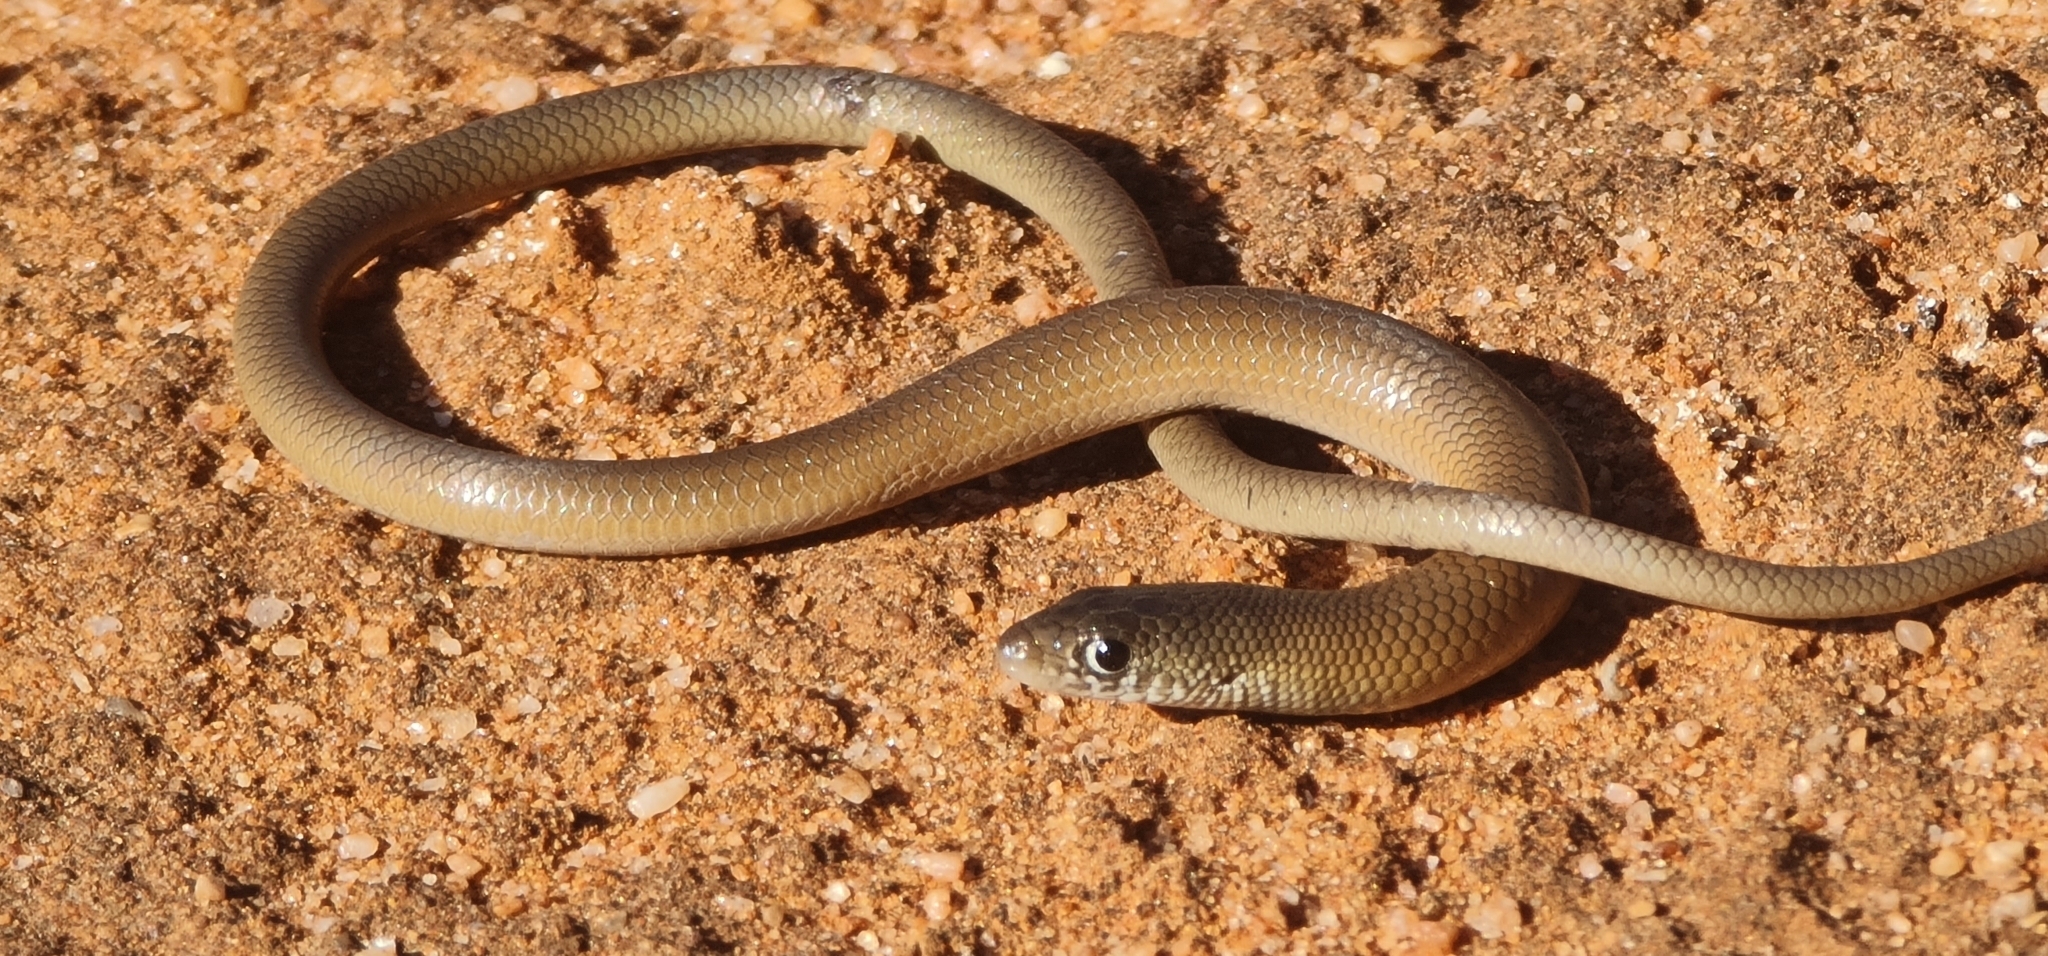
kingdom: Animalia
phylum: Chordata
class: Squamata
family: Pygopodidae
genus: Delma
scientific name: Delma butleri
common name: Butler's legless lizard
